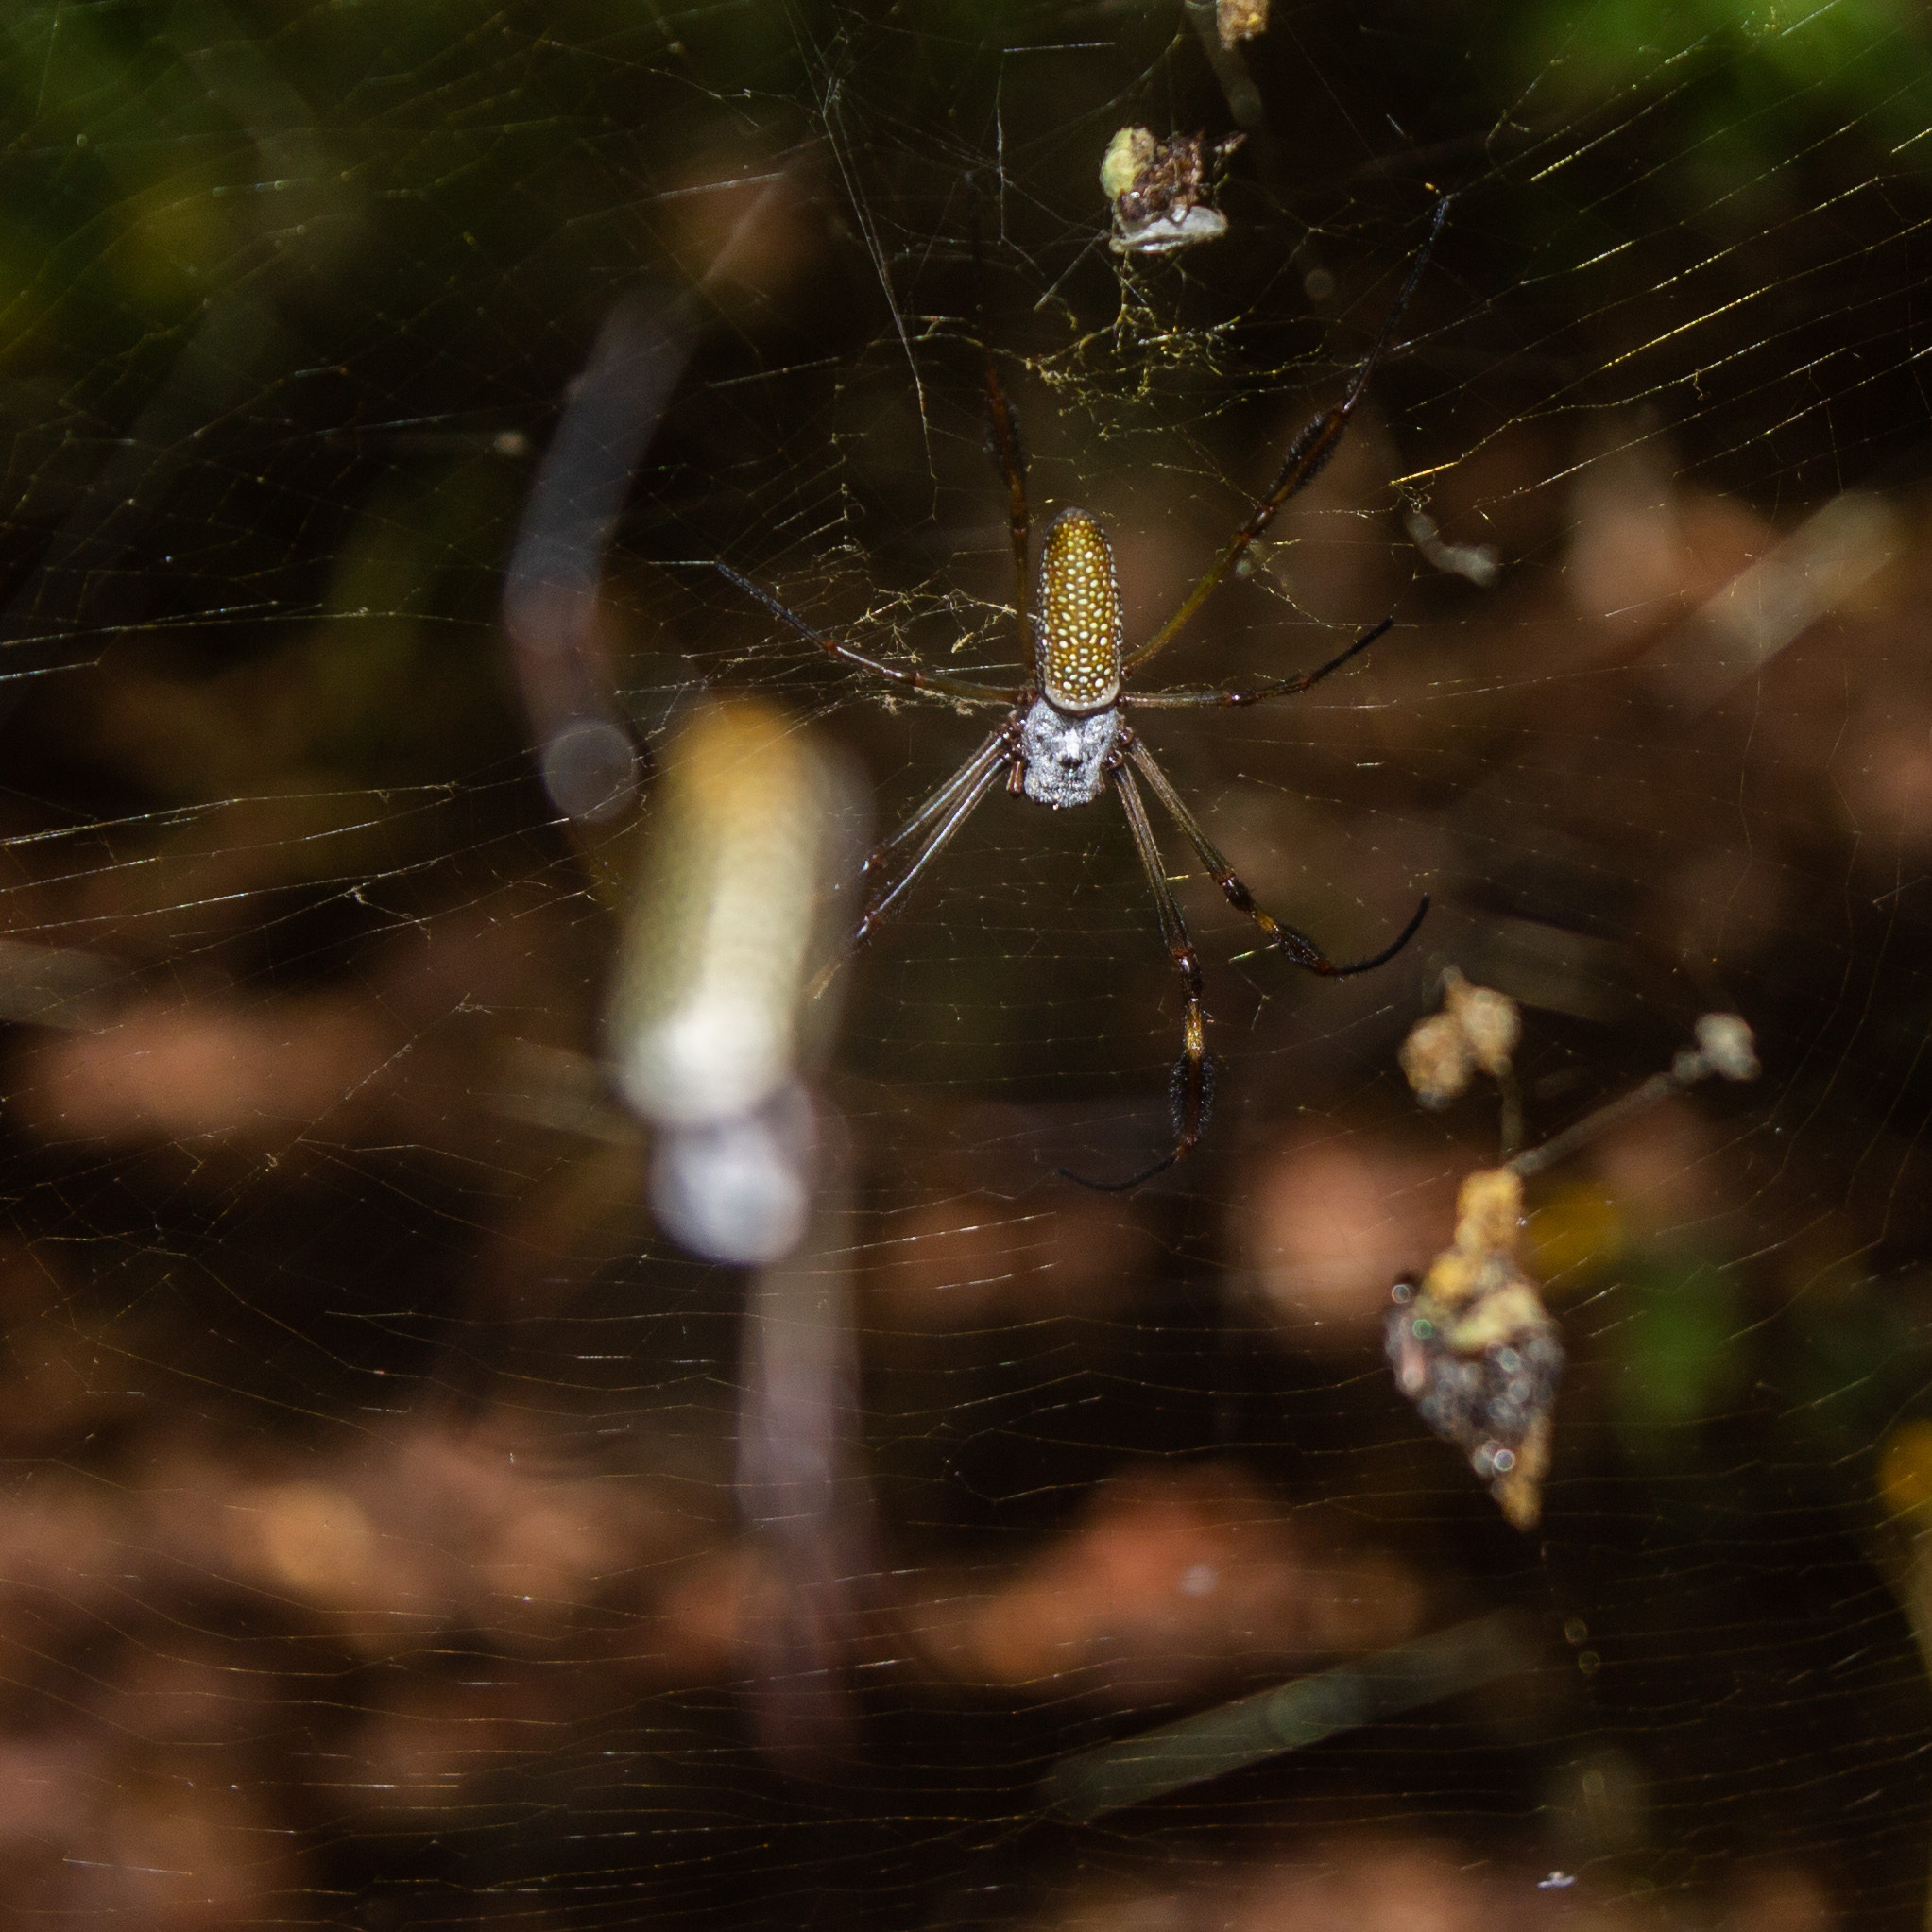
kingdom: Animalia
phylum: Arthropoda
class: Arachnida
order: Araneae
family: Araneidae
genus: Trichonephila
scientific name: Trichonephila clavipes
